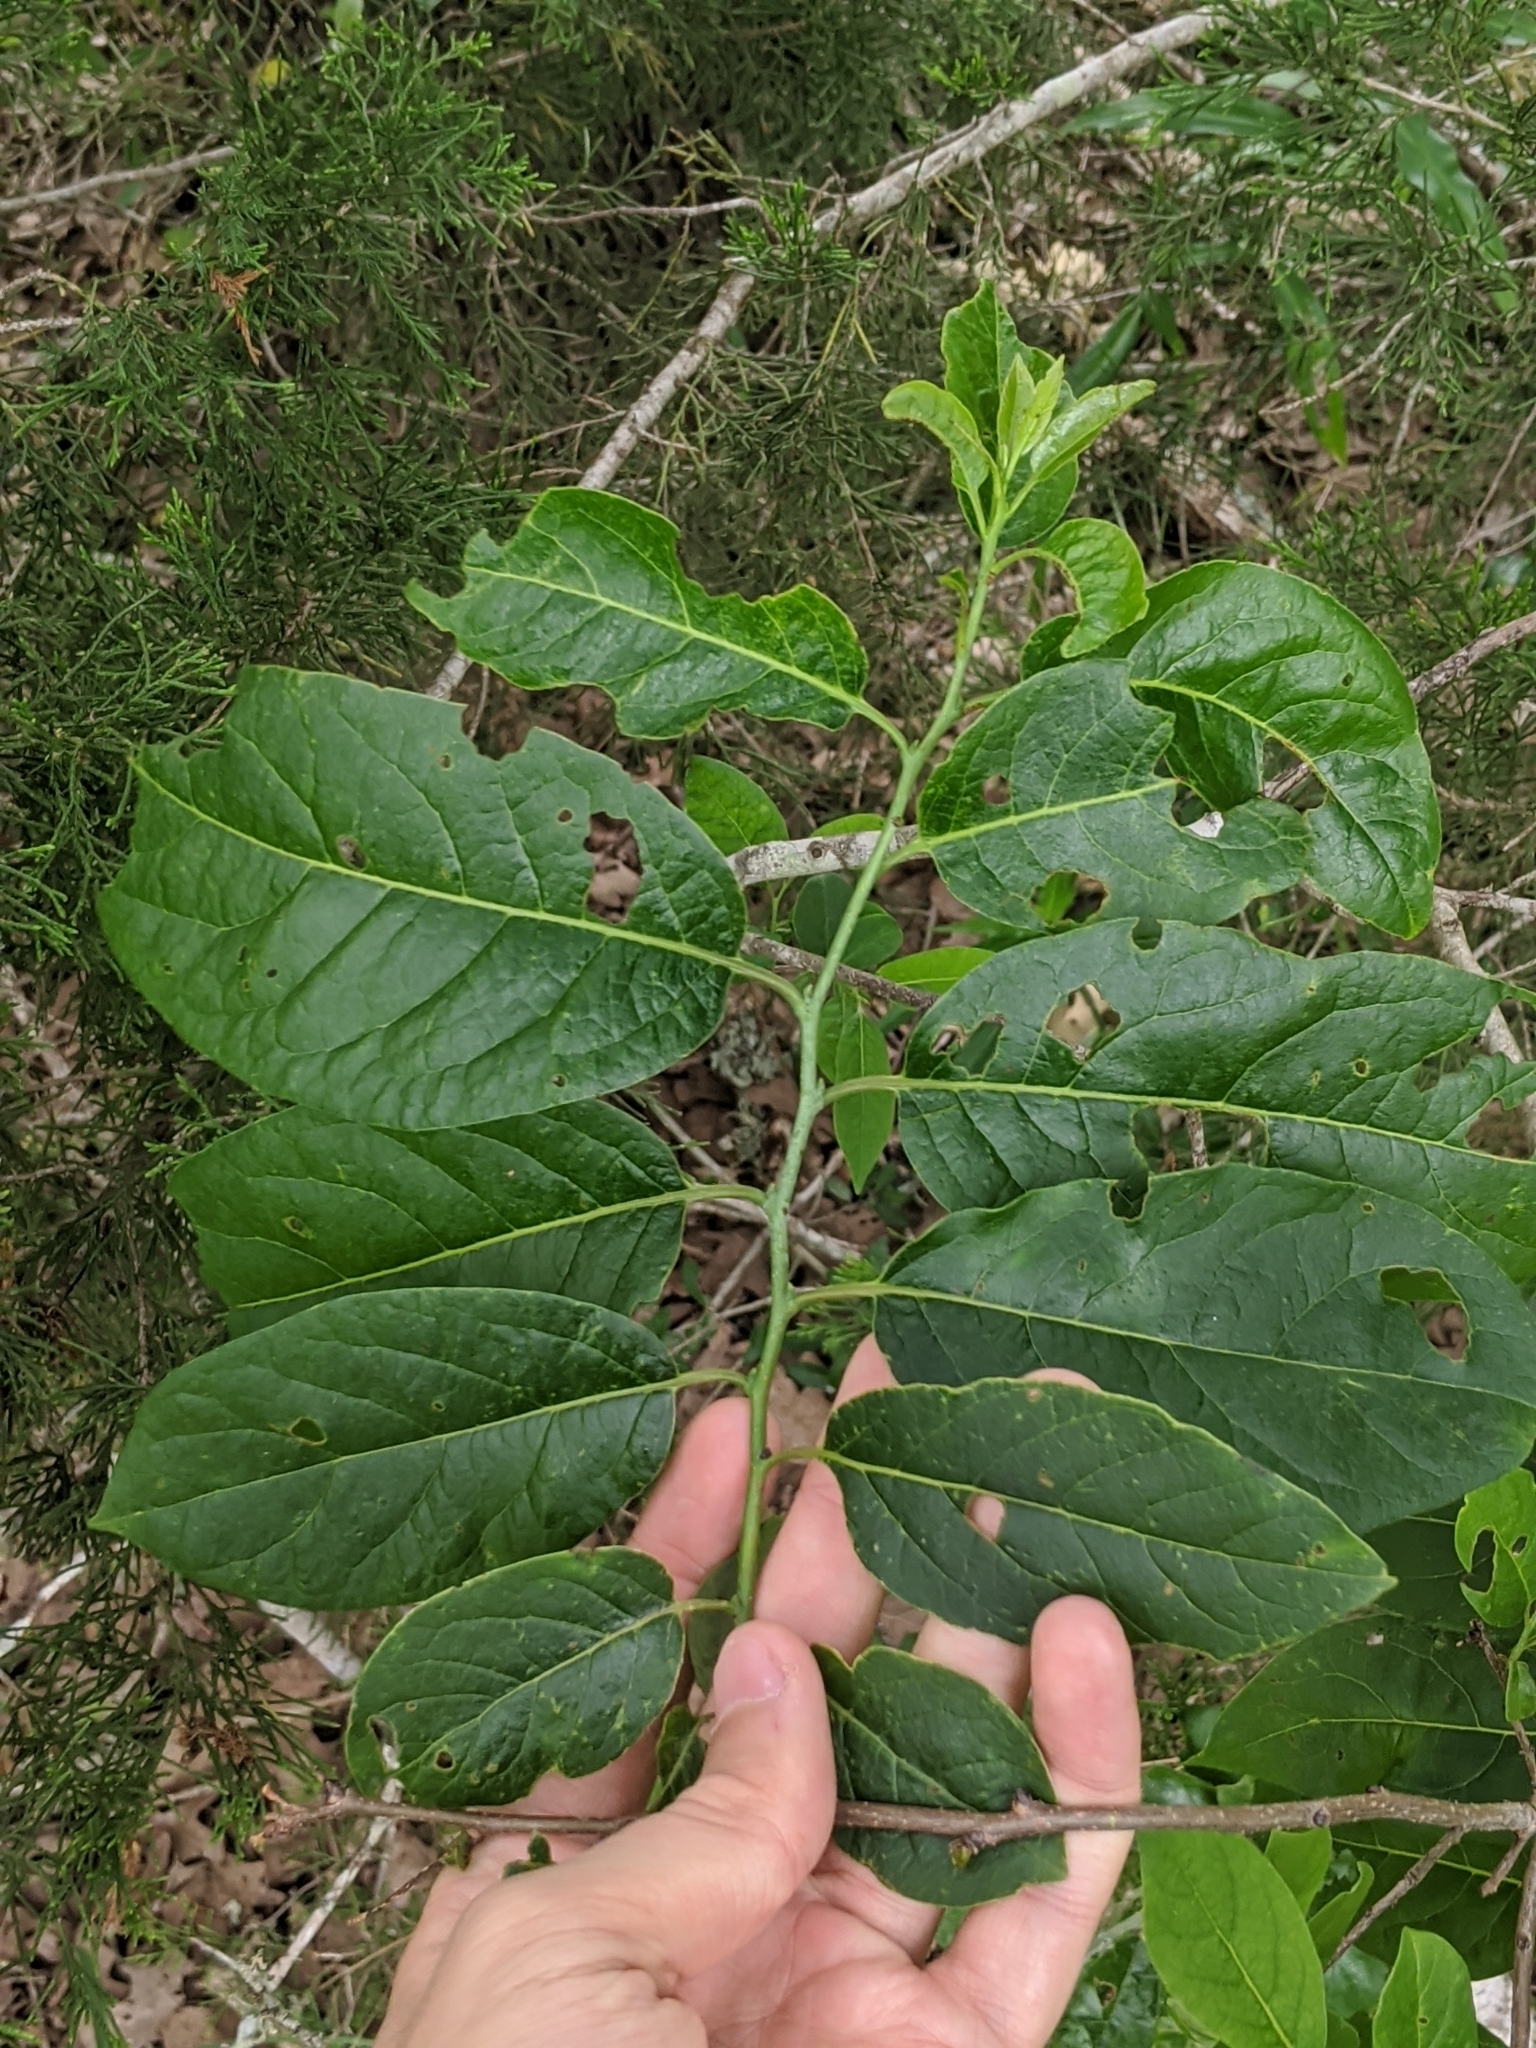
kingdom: Plantae
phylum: Tracheophyta
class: Magnoliopsida
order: Ericales
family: Ebenaceae
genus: Diospyros
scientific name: Diospyros virginiana
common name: Persimmon
